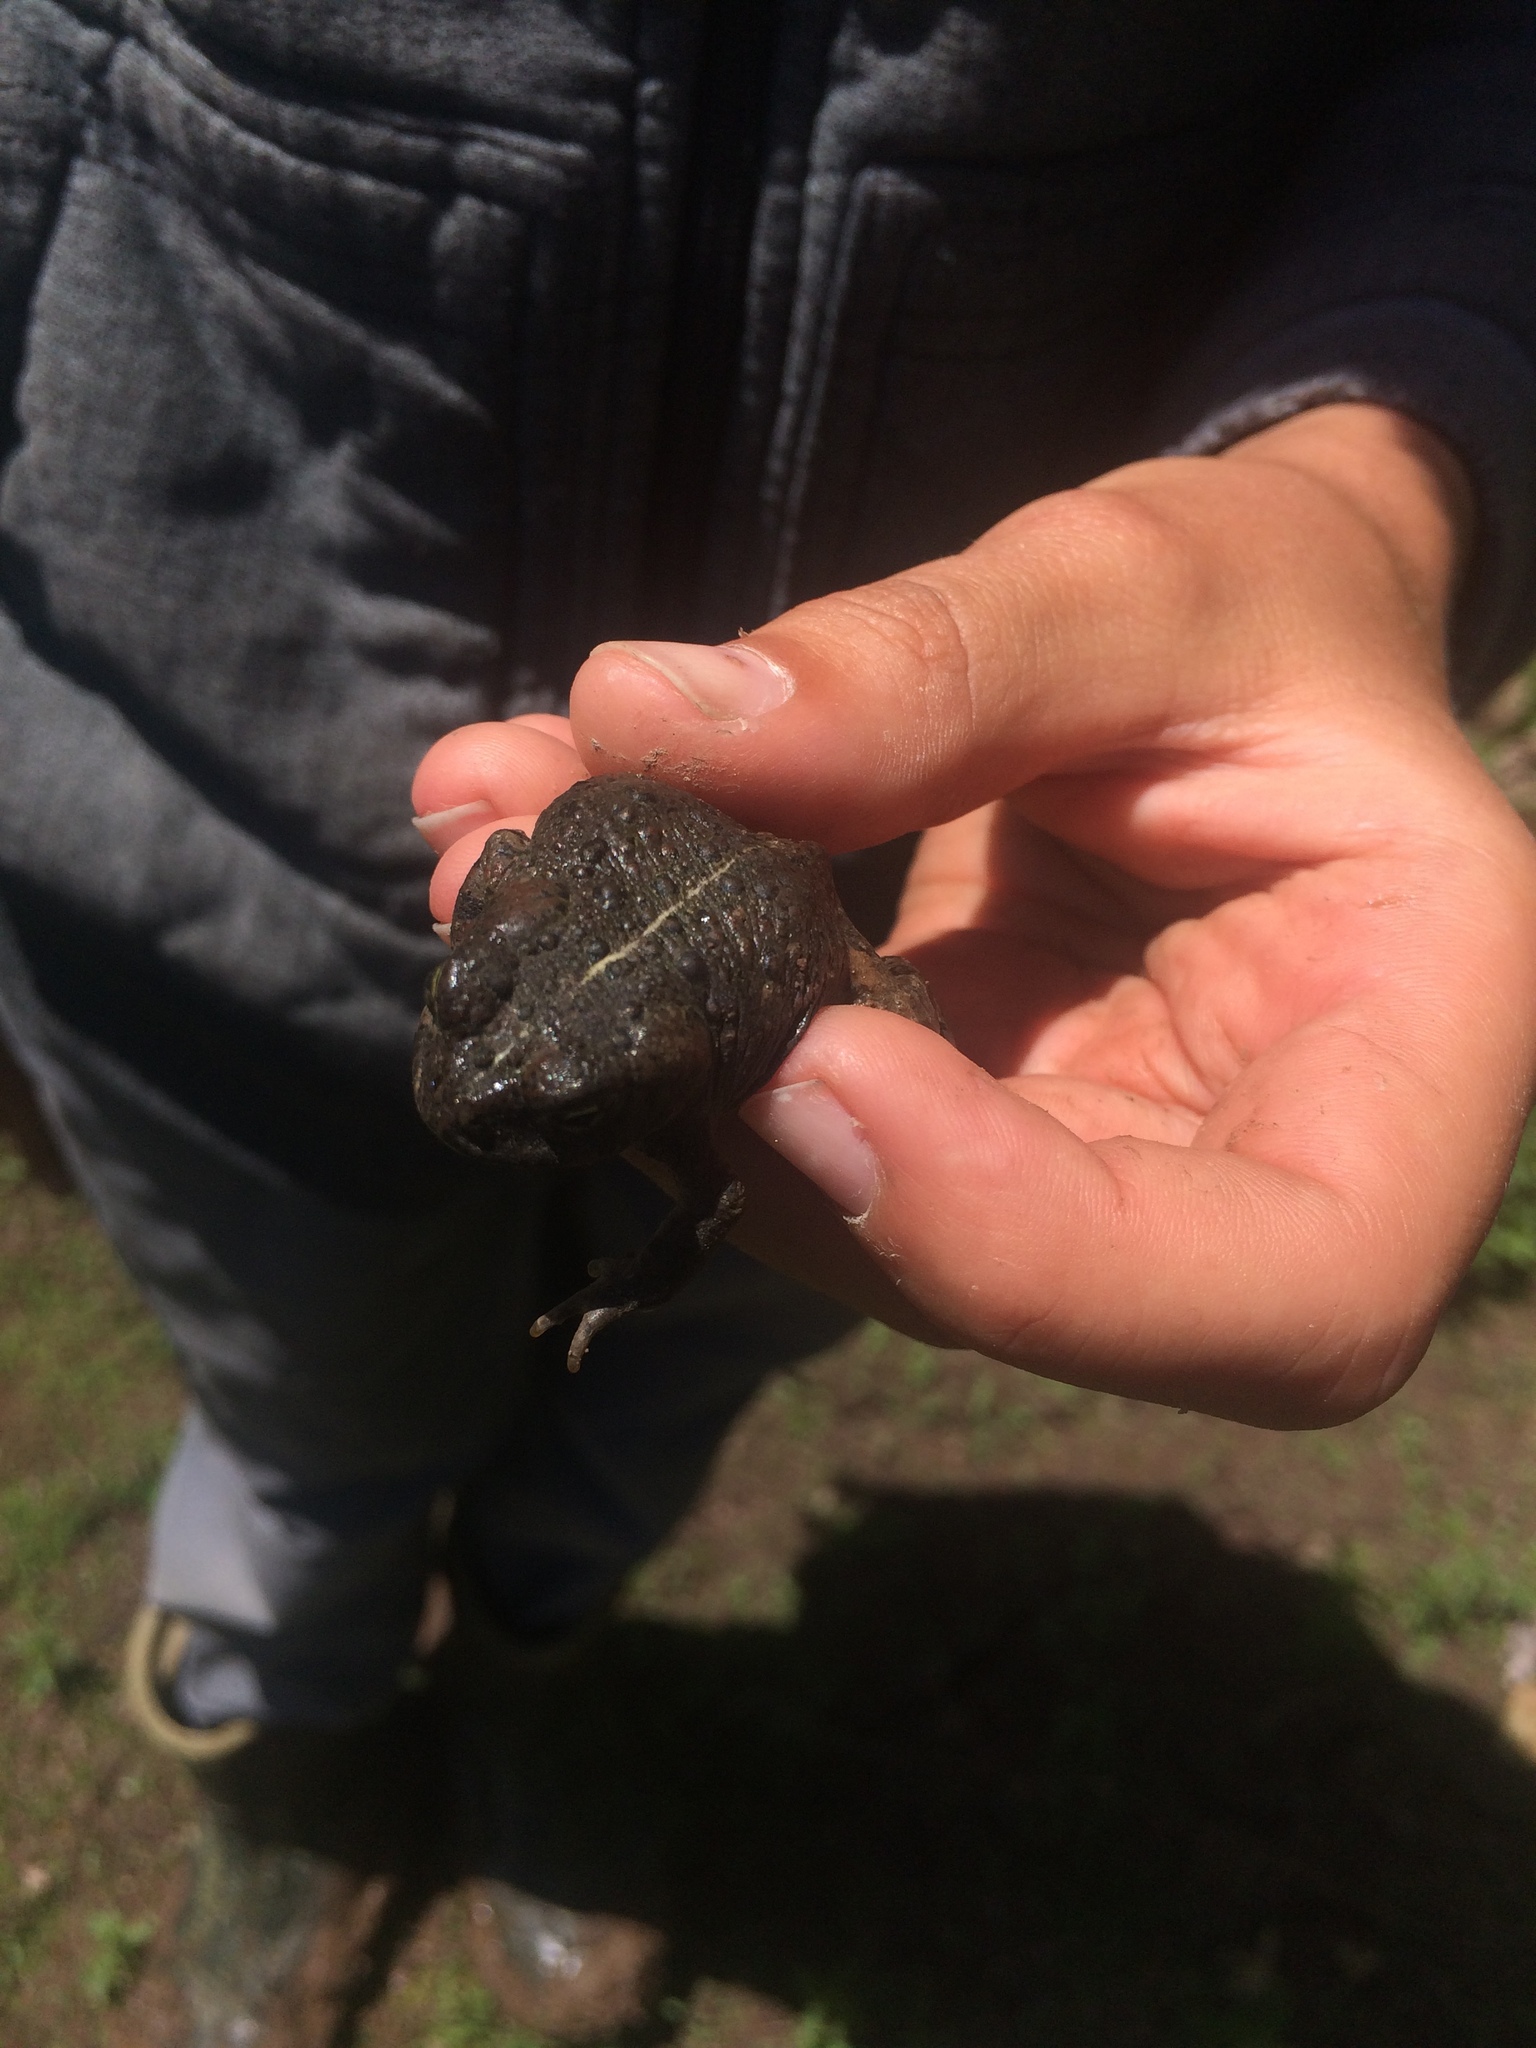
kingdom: Animalia
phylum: Chordata
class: Amphibia
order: Anura
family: Bufonidae
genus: Anaxyrus
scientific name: Anaxyrus boreas
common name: Western toad
